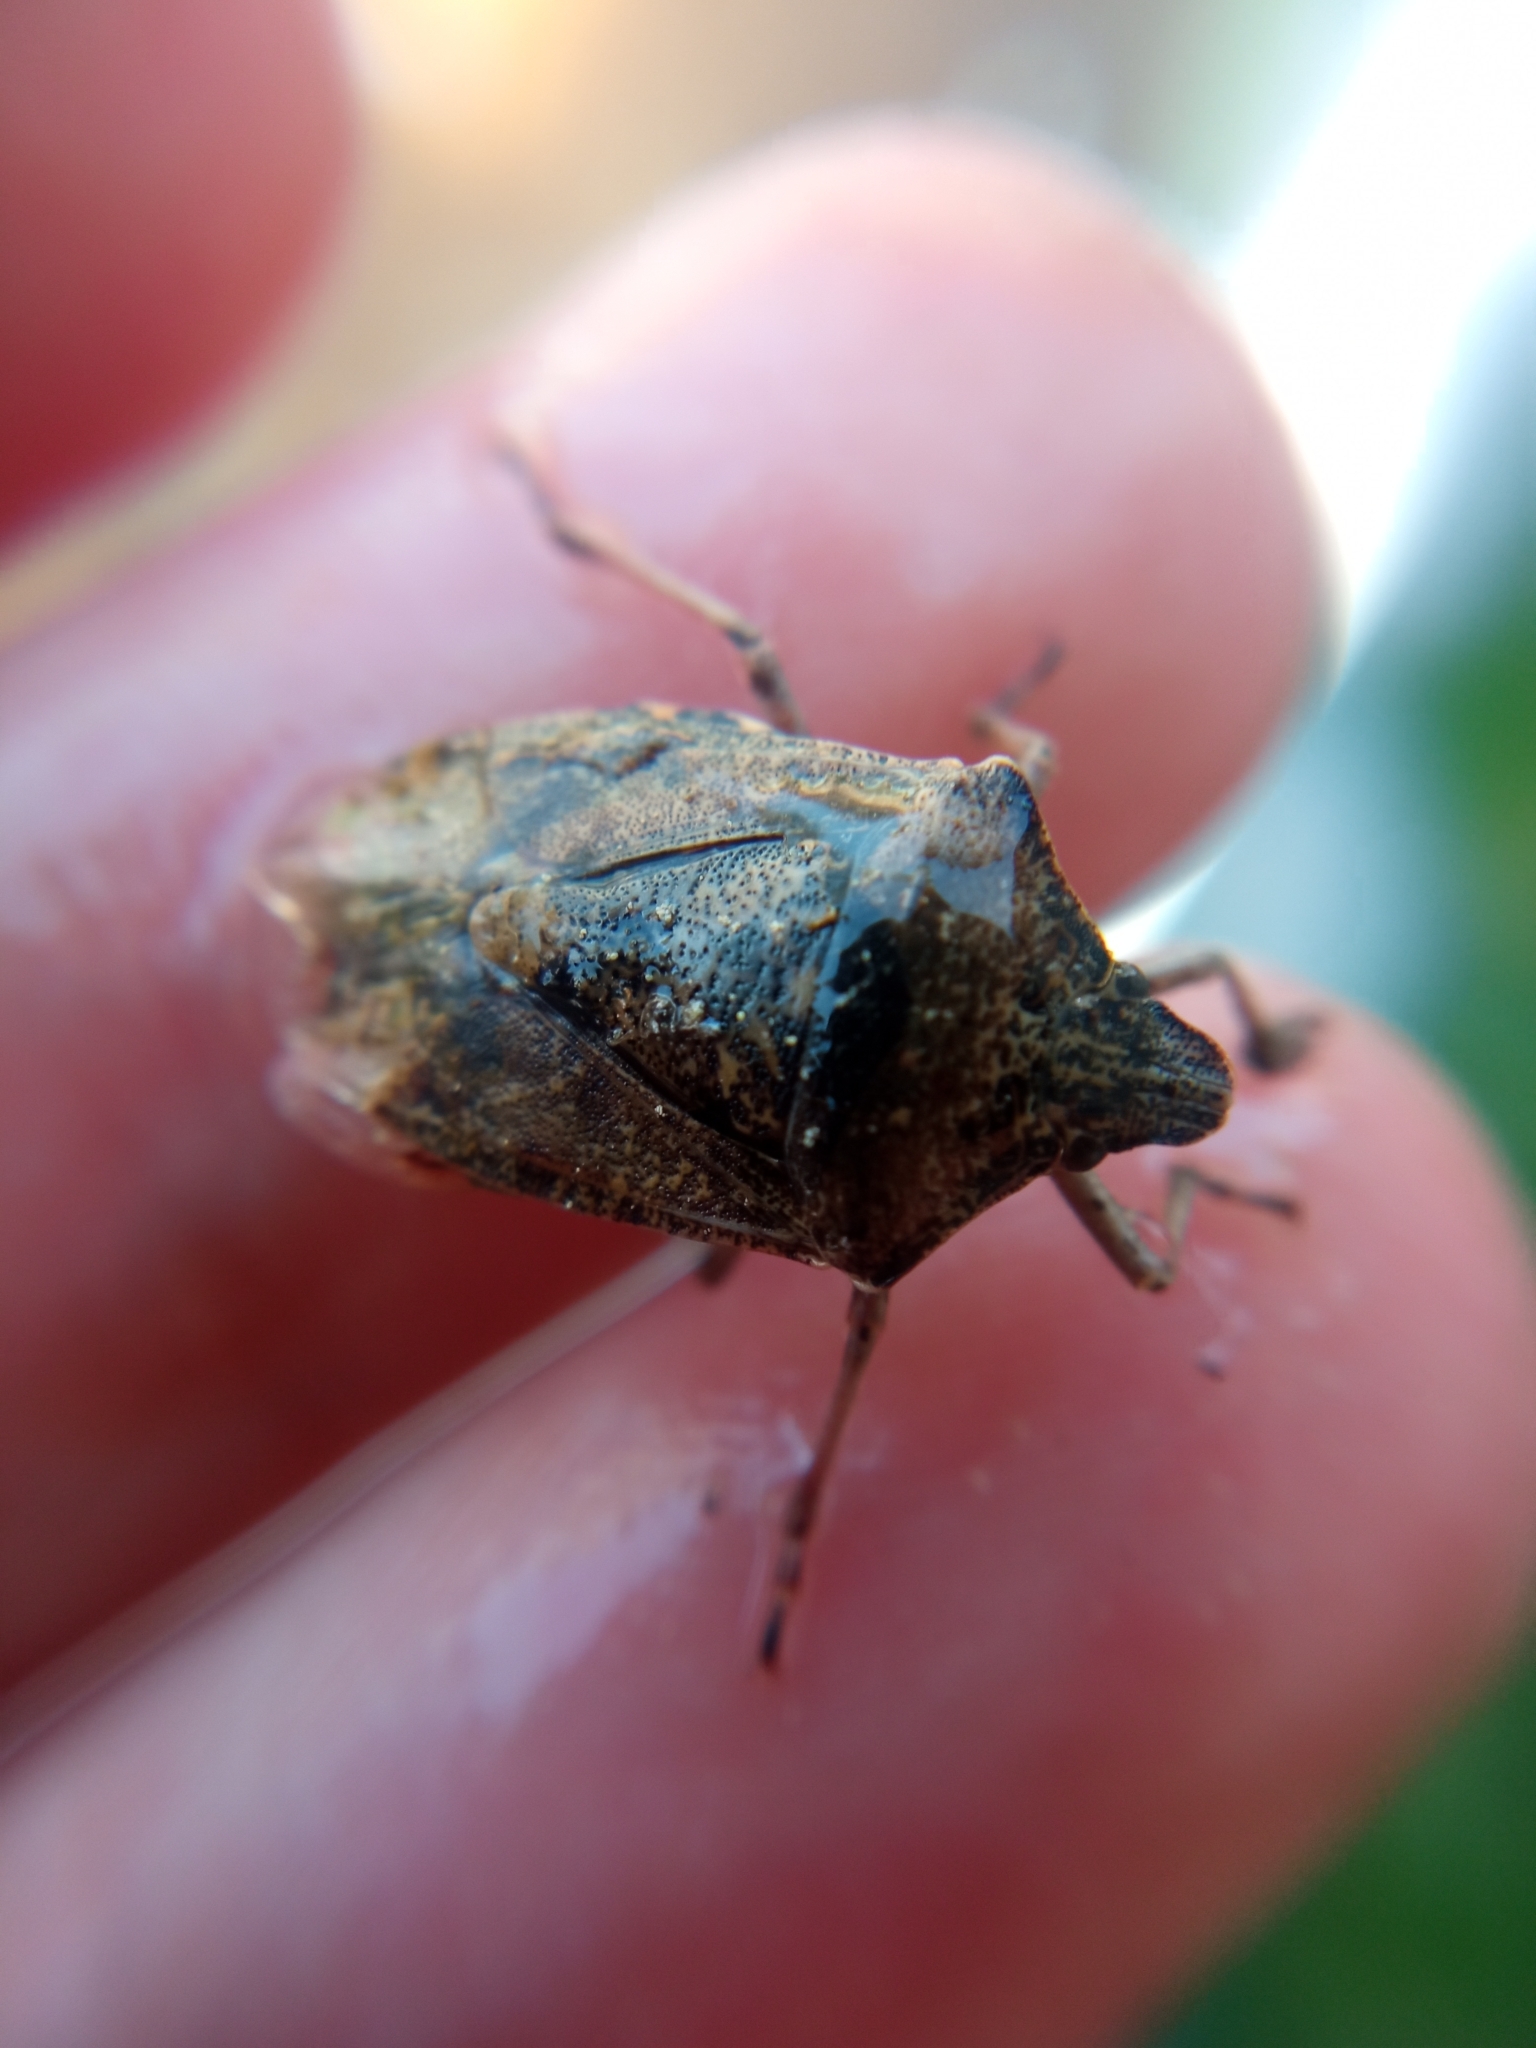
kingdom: Animalia
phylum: Arthropoda
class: Insecta
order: Hemiptera
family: Pentatomidae
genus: Rhaphigaster
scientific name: Rhaphigaster nebulosa
